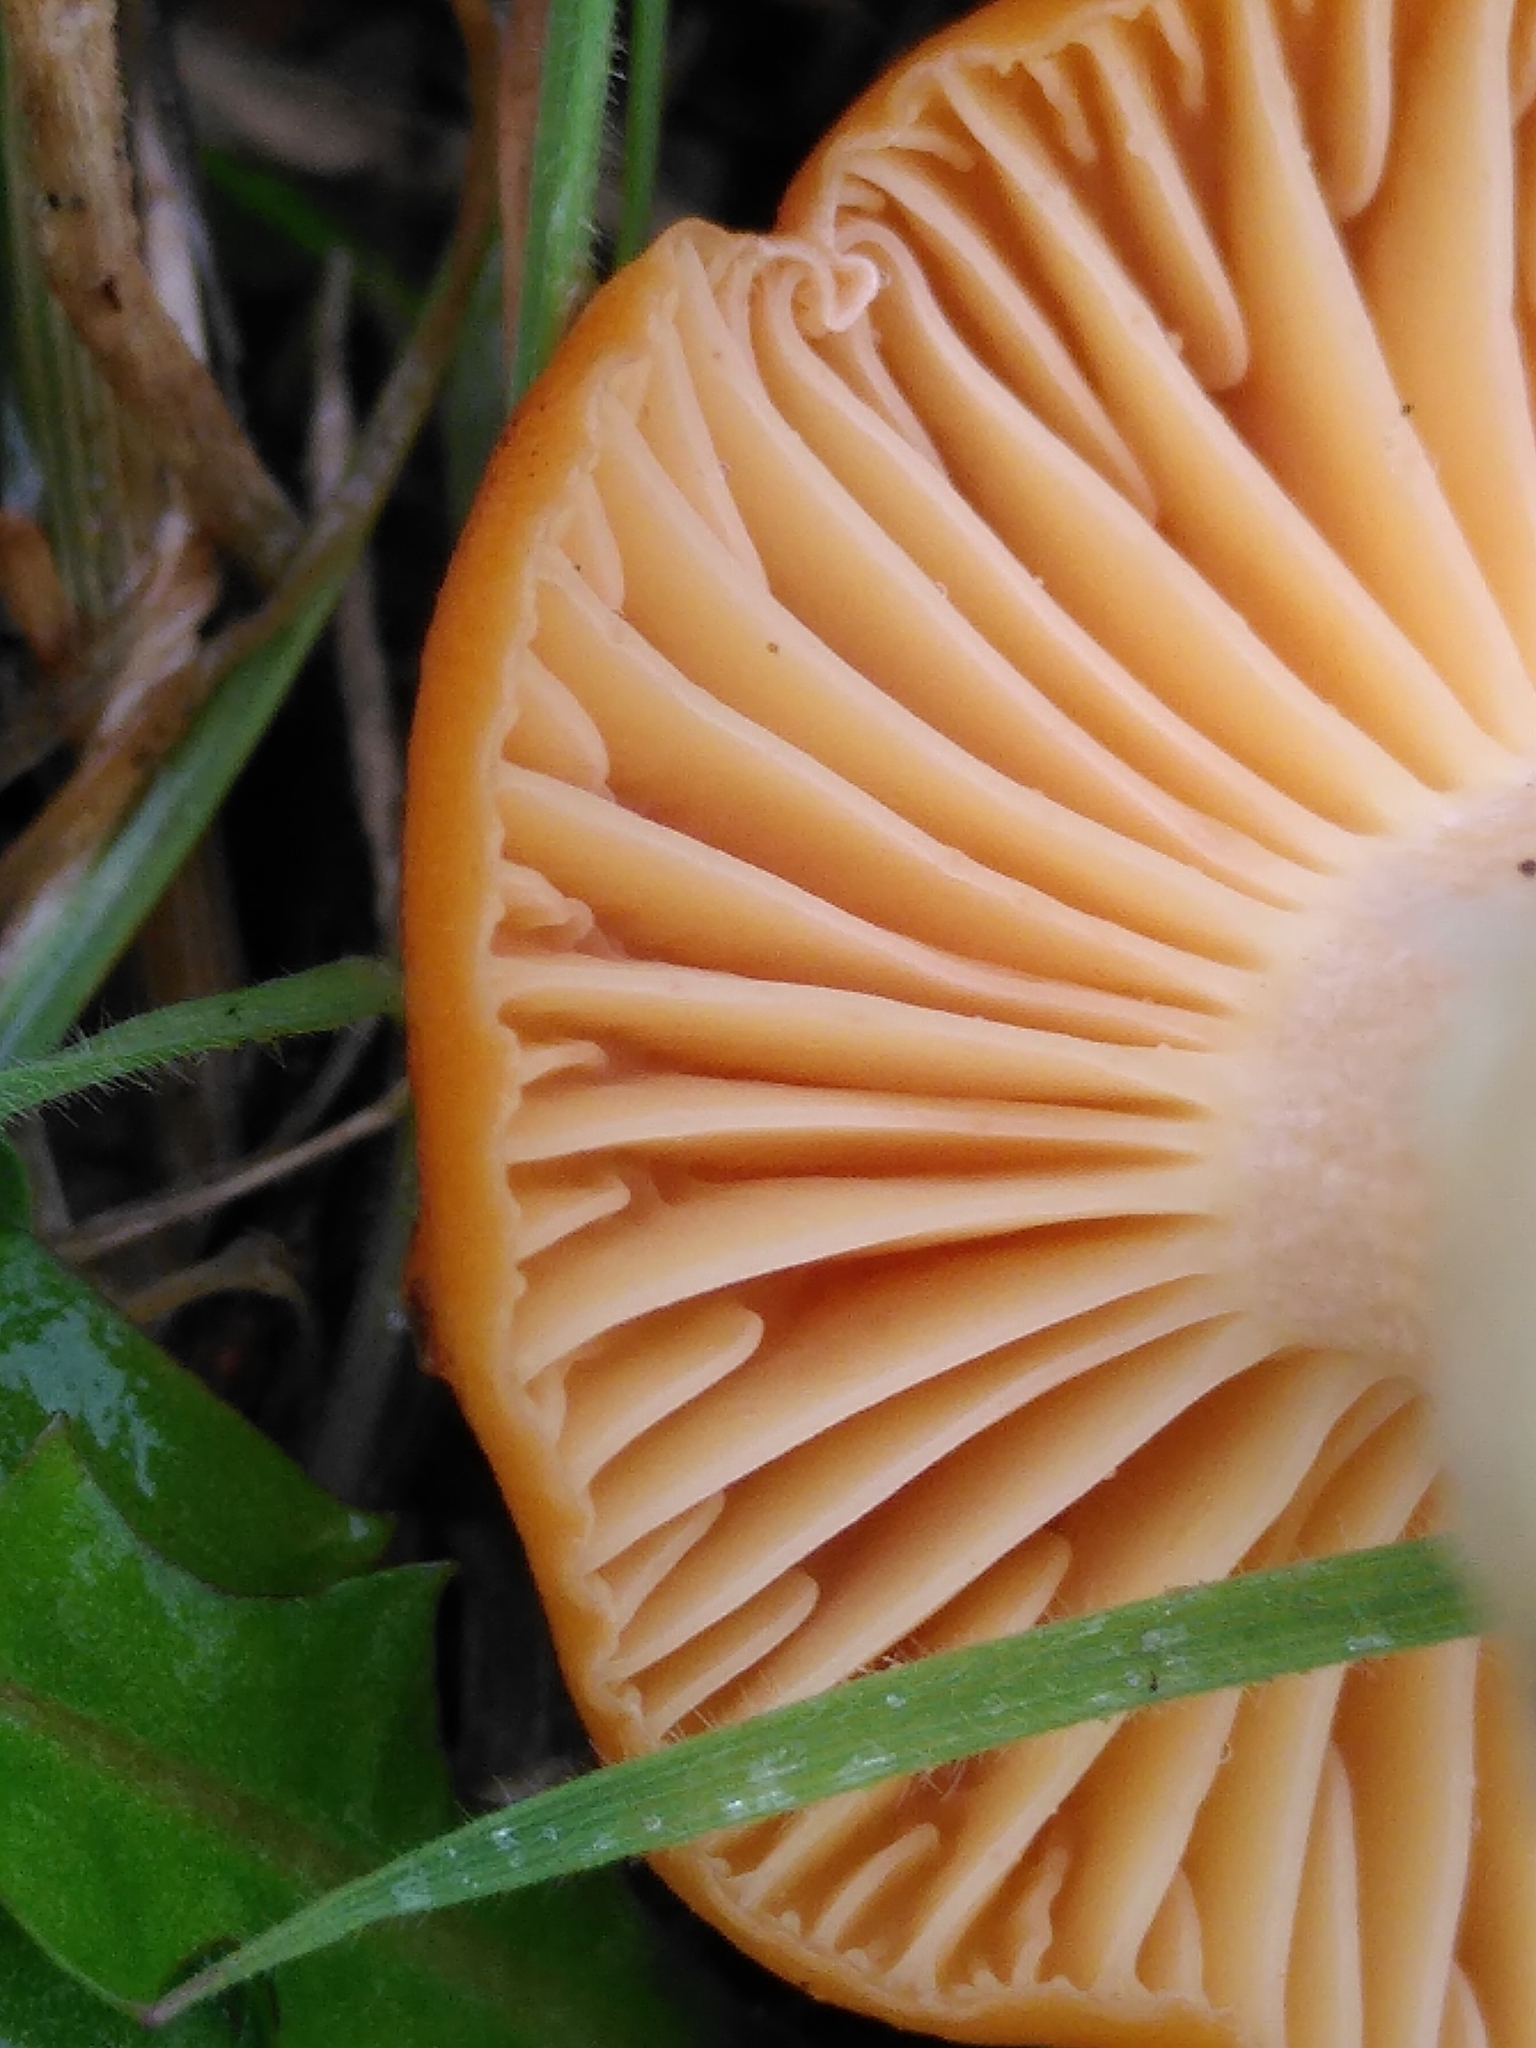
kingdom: Fungi
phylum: Basidiomycota
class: Agaricomycetes
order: Agaricales
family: Hygrophoraceae
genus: Cuphophyllus
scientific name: Cuphophyllus pratensis
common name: Meadow waxcap
